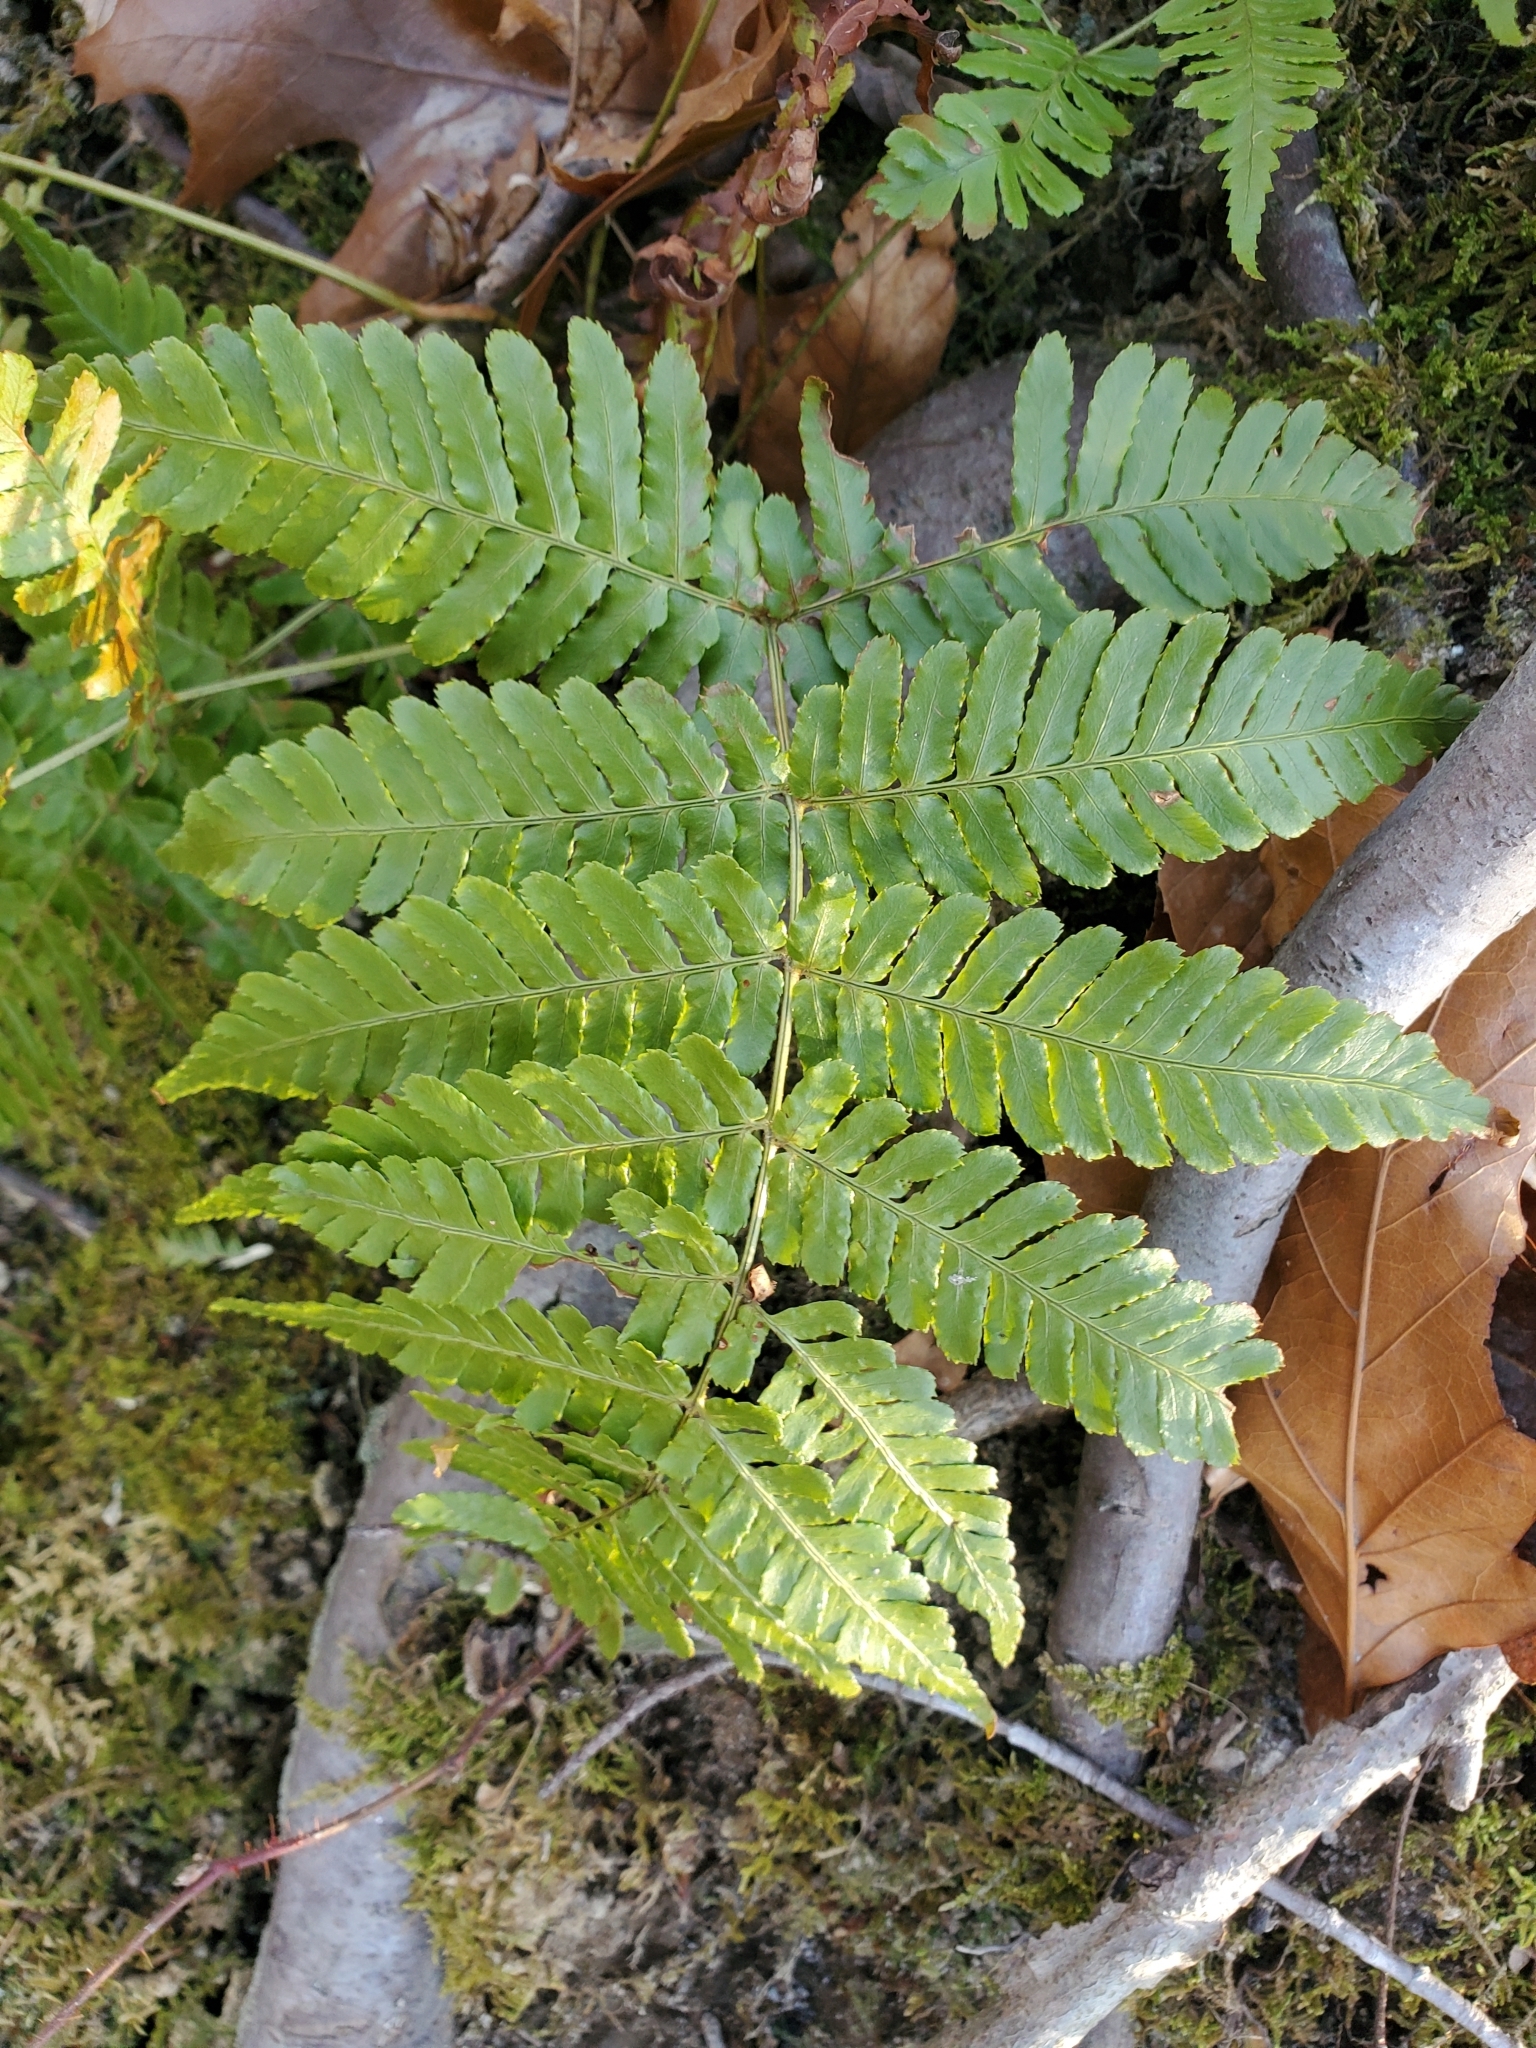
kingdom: Plantae
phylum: Tracheophyta
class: Polypodiopsida
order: Polypodiales
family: Dryopteridaceae
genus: Dryopteris
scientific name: Dryopteris erythrosora
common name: Autumn fern
